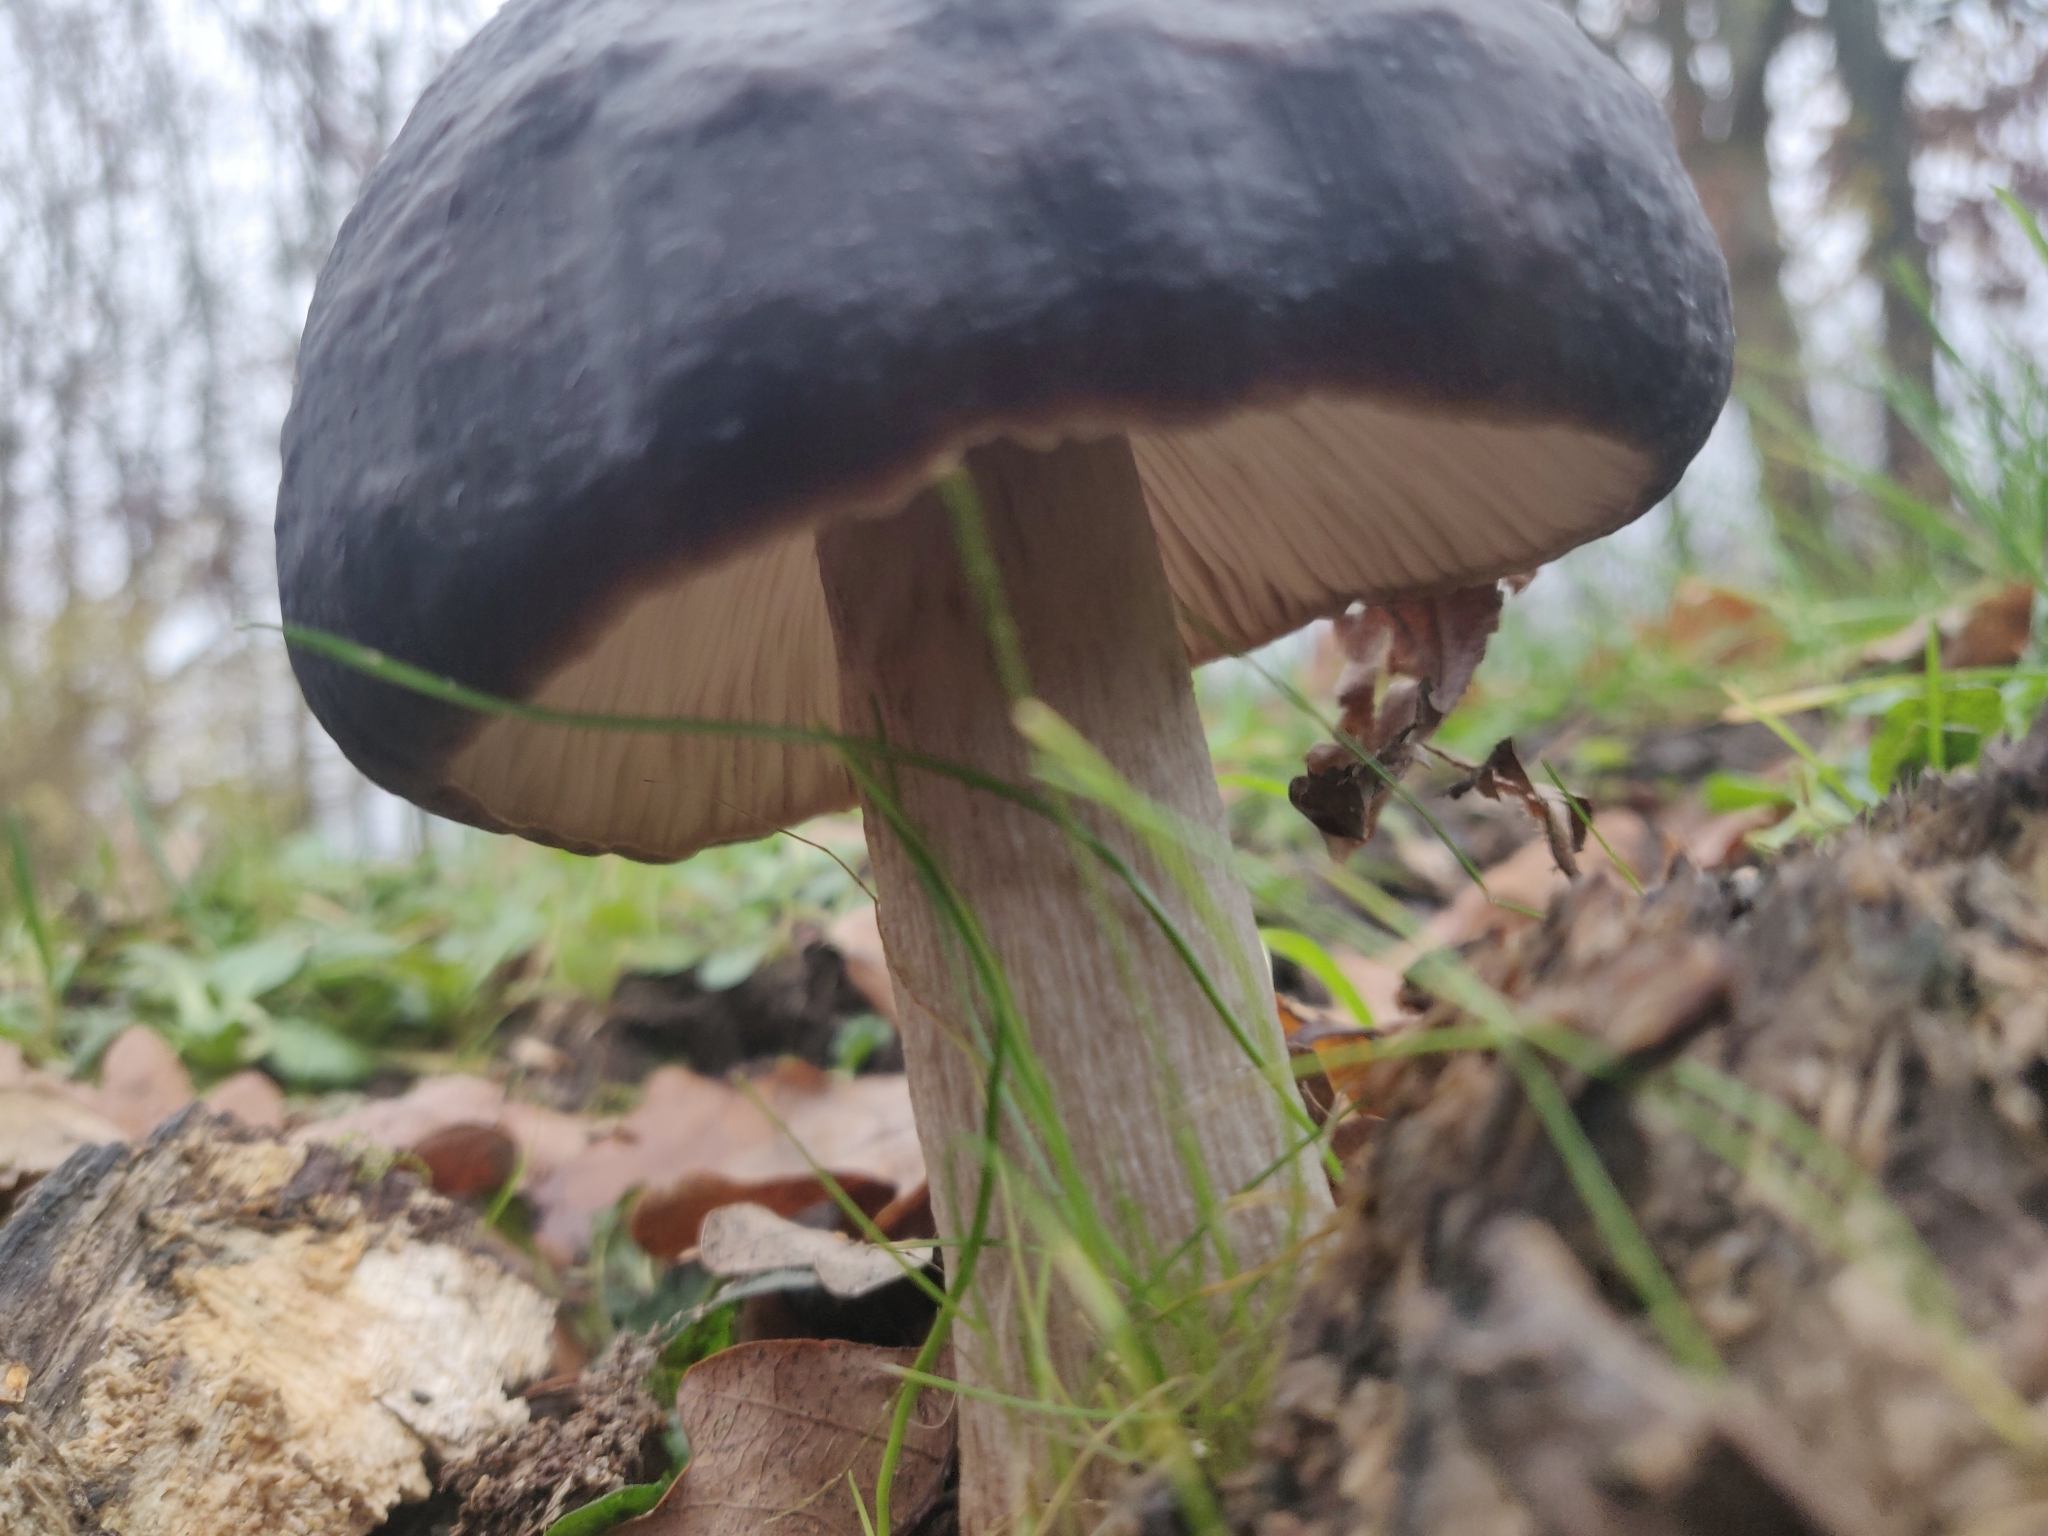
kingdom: Fungi
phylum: Basidiomycota
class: Agaricomycetes
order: Agaricales
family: Pluteaceae
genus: Pluteus
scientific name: Pluteus cervinus
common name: Deer shield
